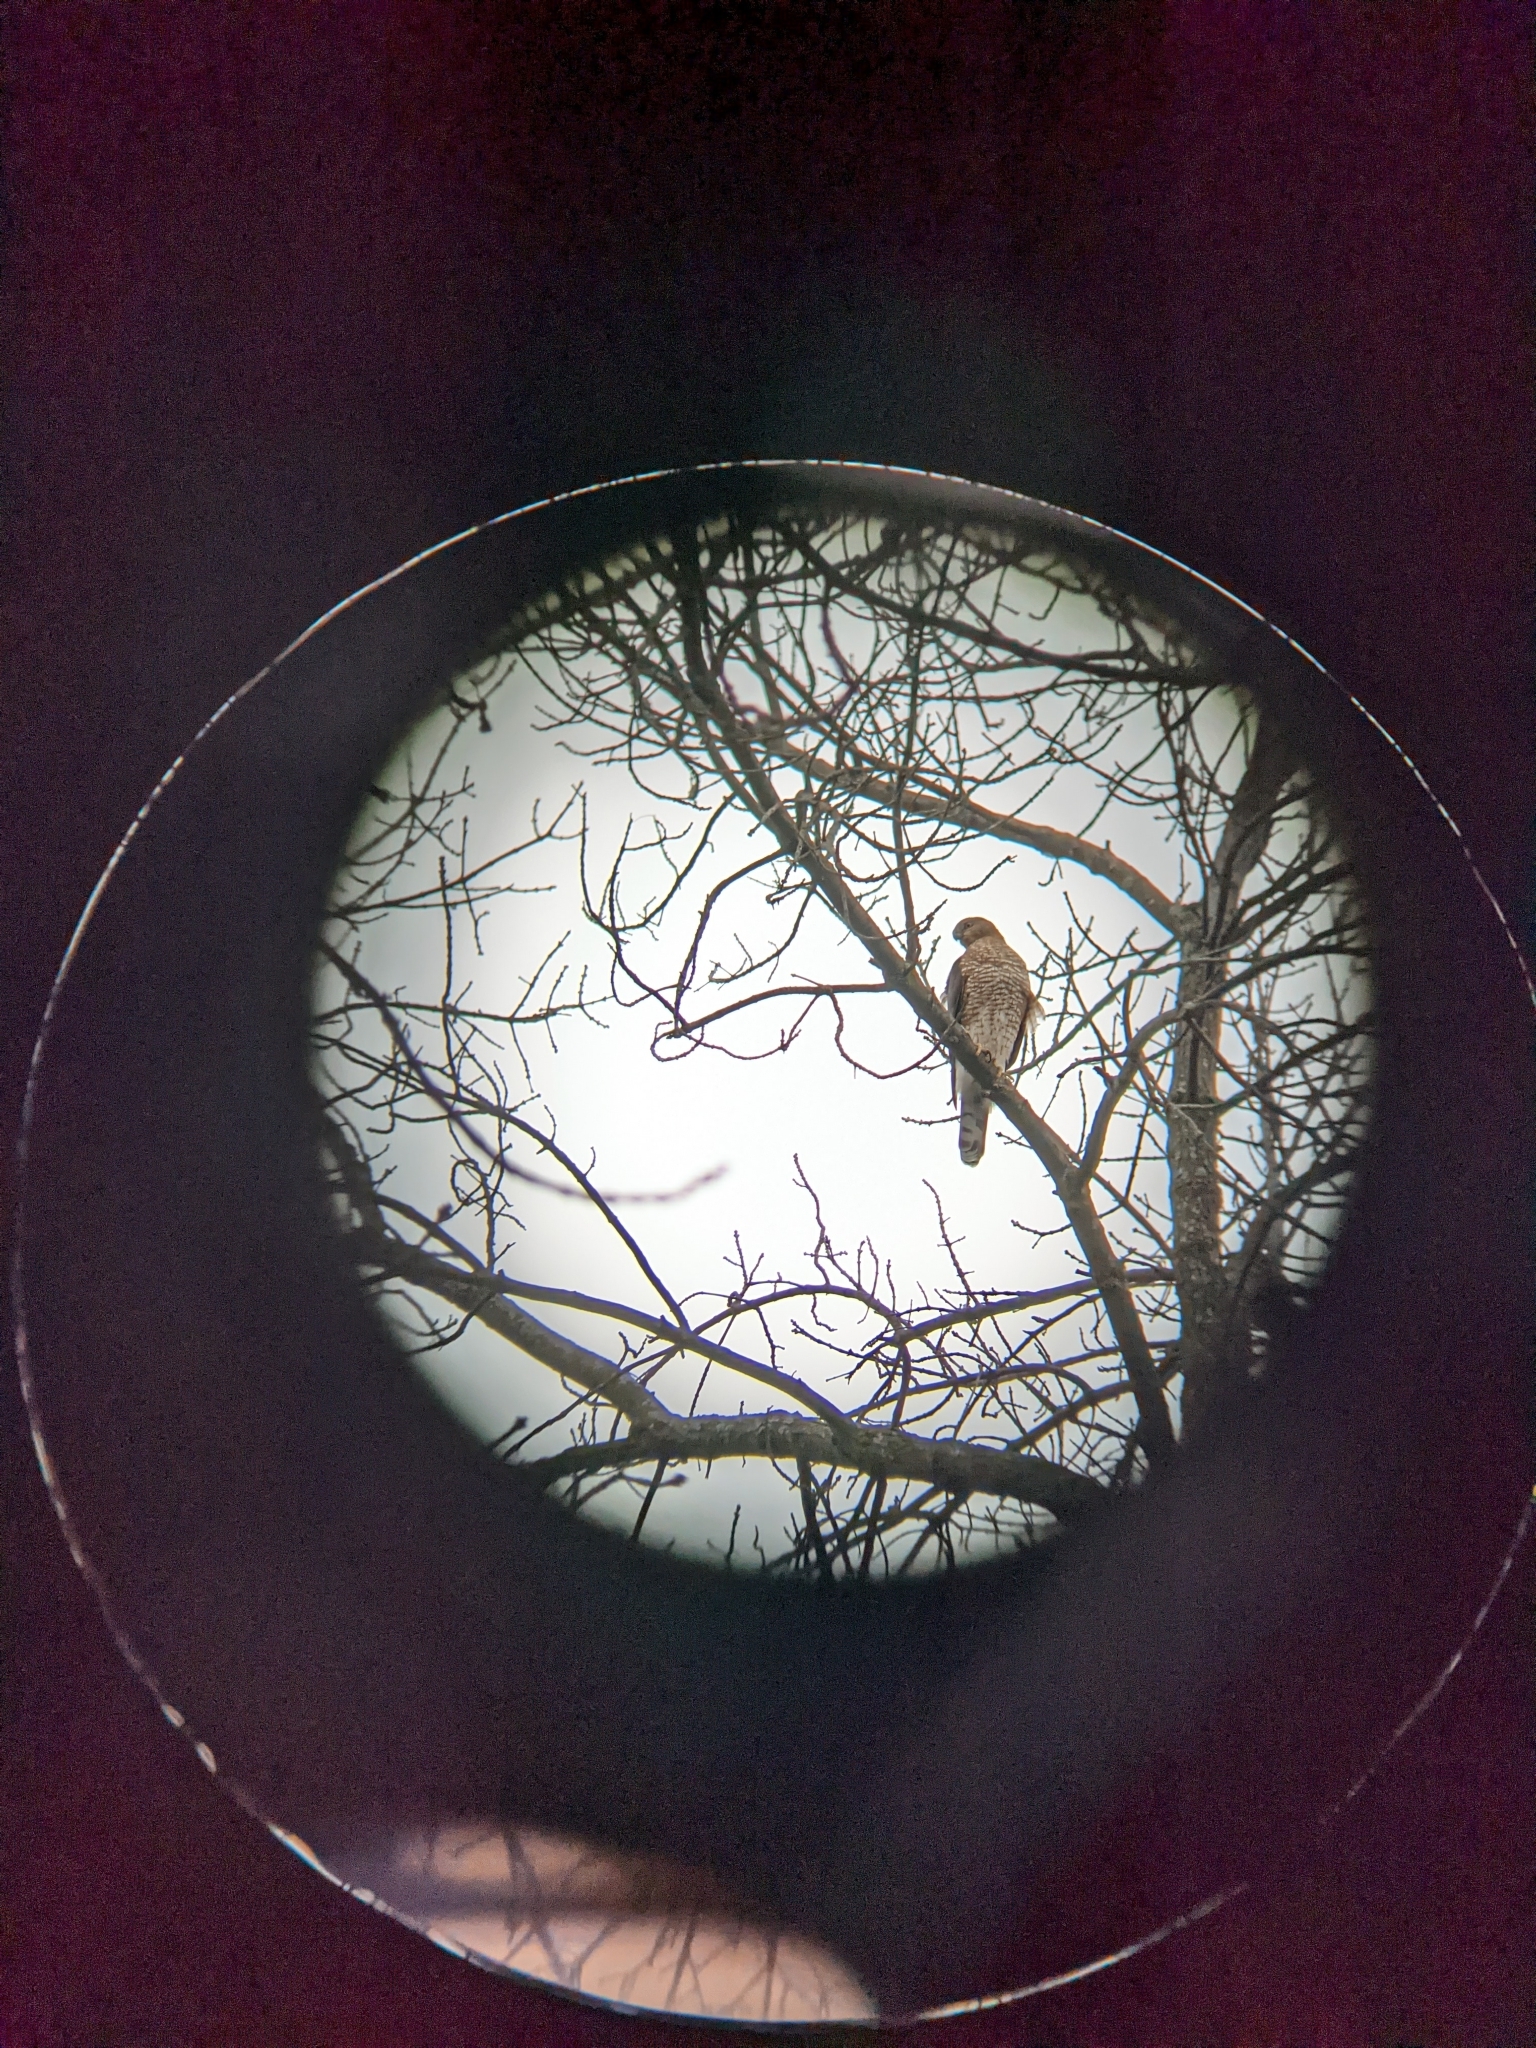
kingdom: Animalia
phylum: Chordata
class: Aves
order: Accipitriformes
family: Accipitridae
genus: Accipiter
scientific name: Accipiter cooperii
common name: Cooper's hawk
